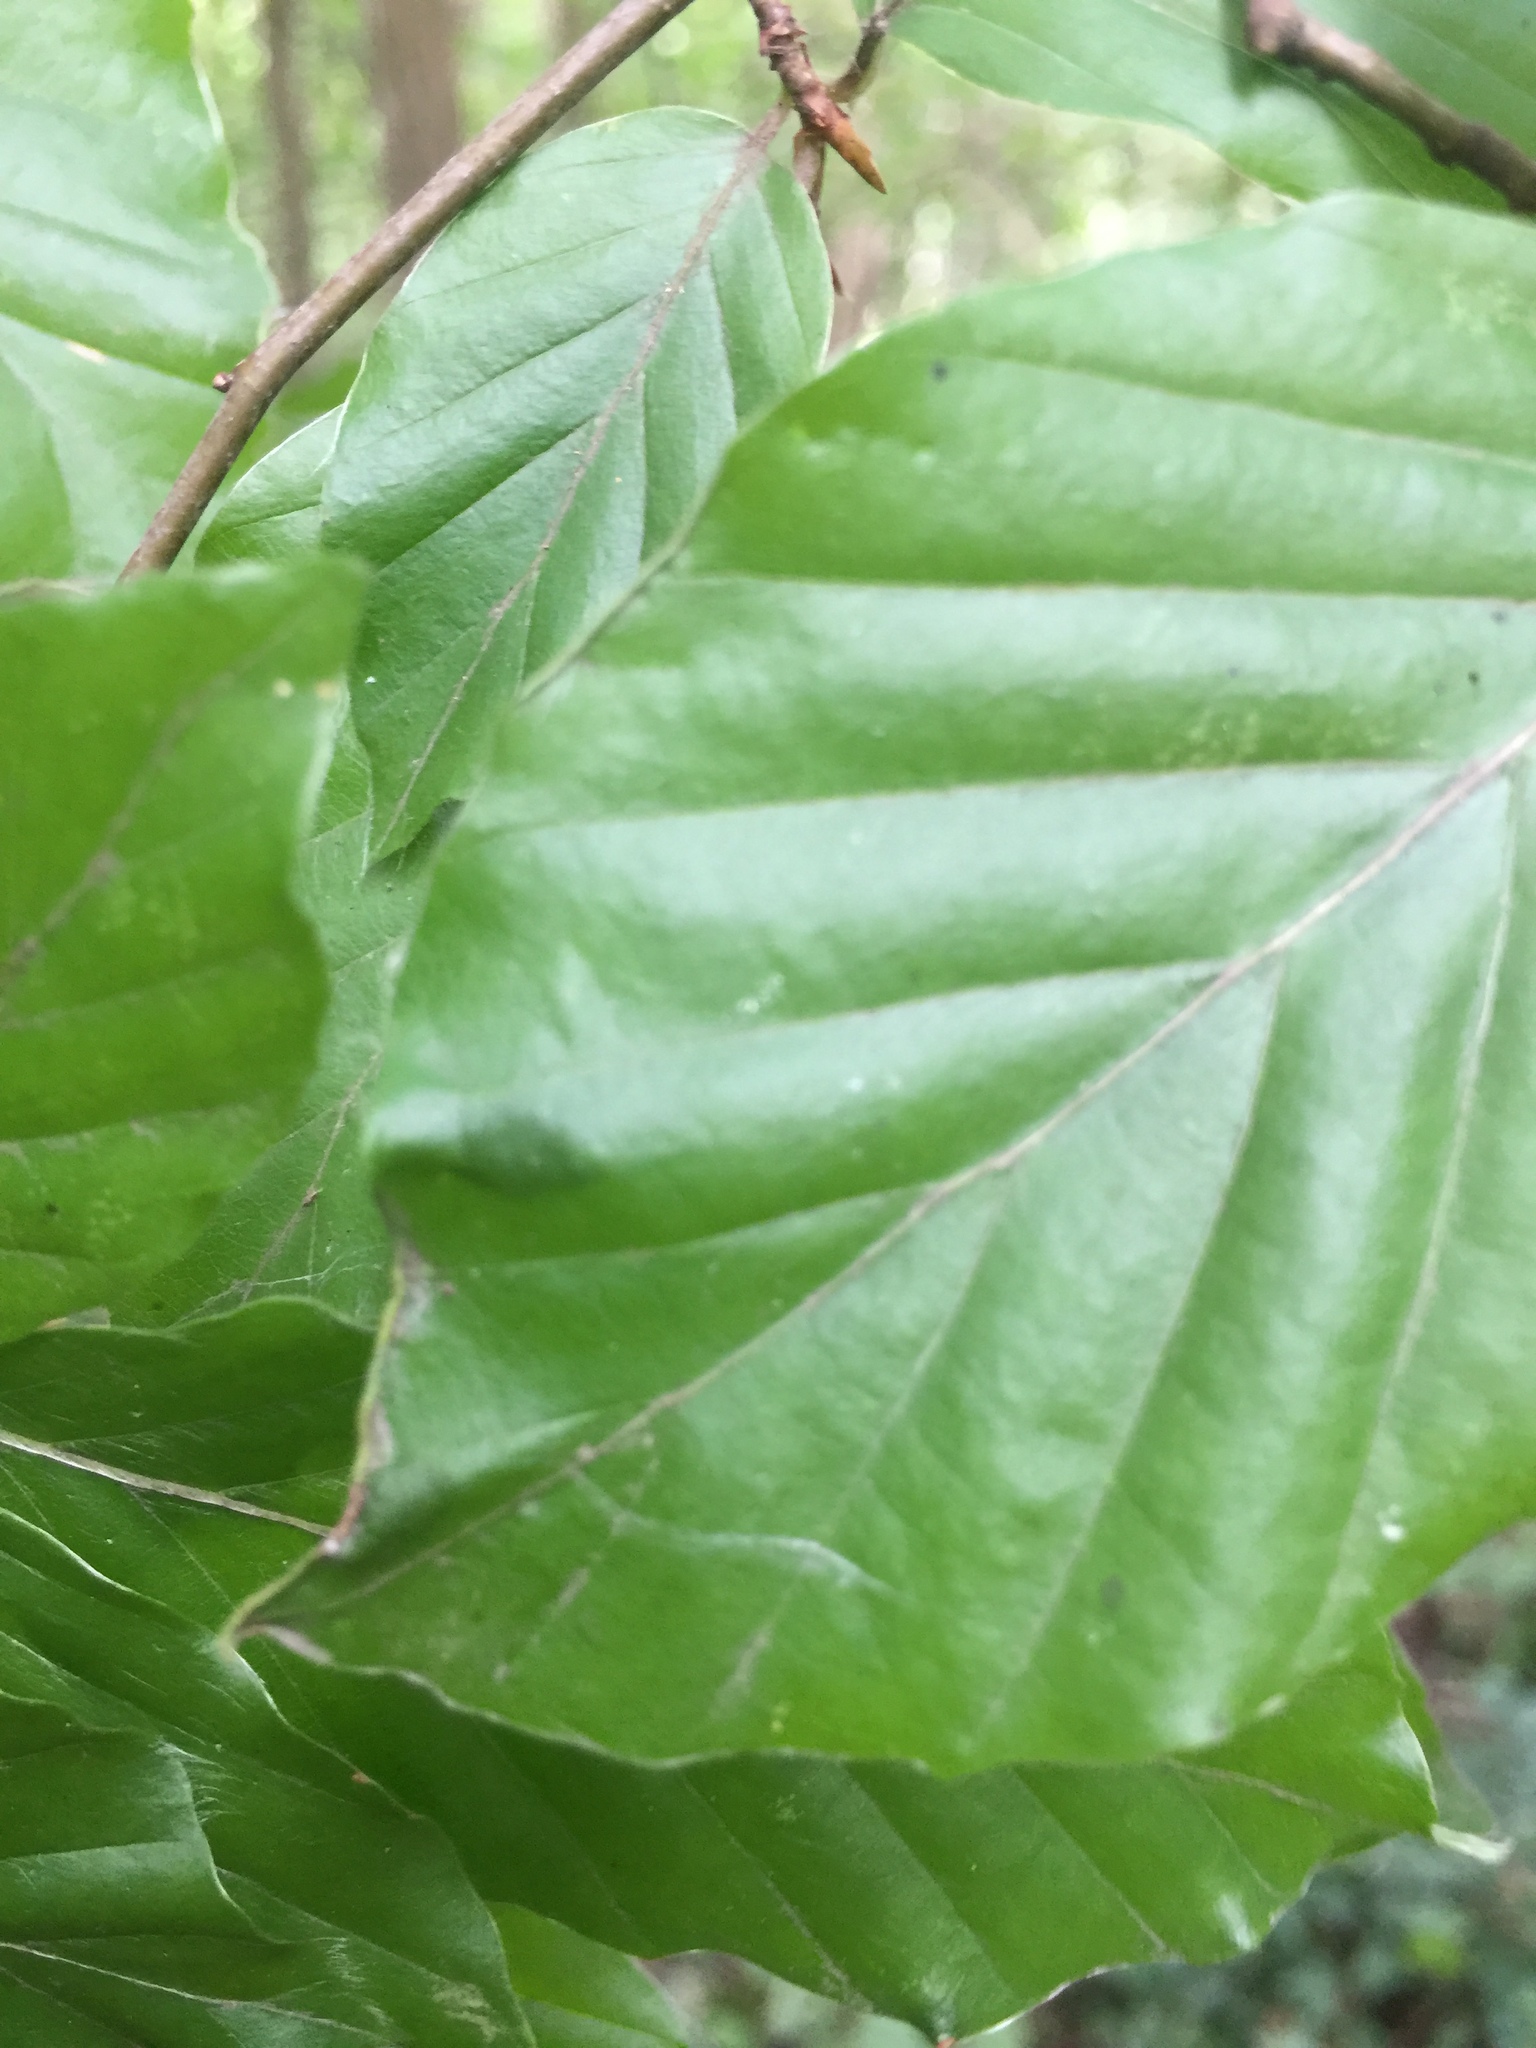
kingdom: Animalia
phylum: Arthropoda
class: Arachnida
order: Trombidiformes
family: Eriophyidae
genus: Acalitus
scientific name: Acalitus stenaspis
